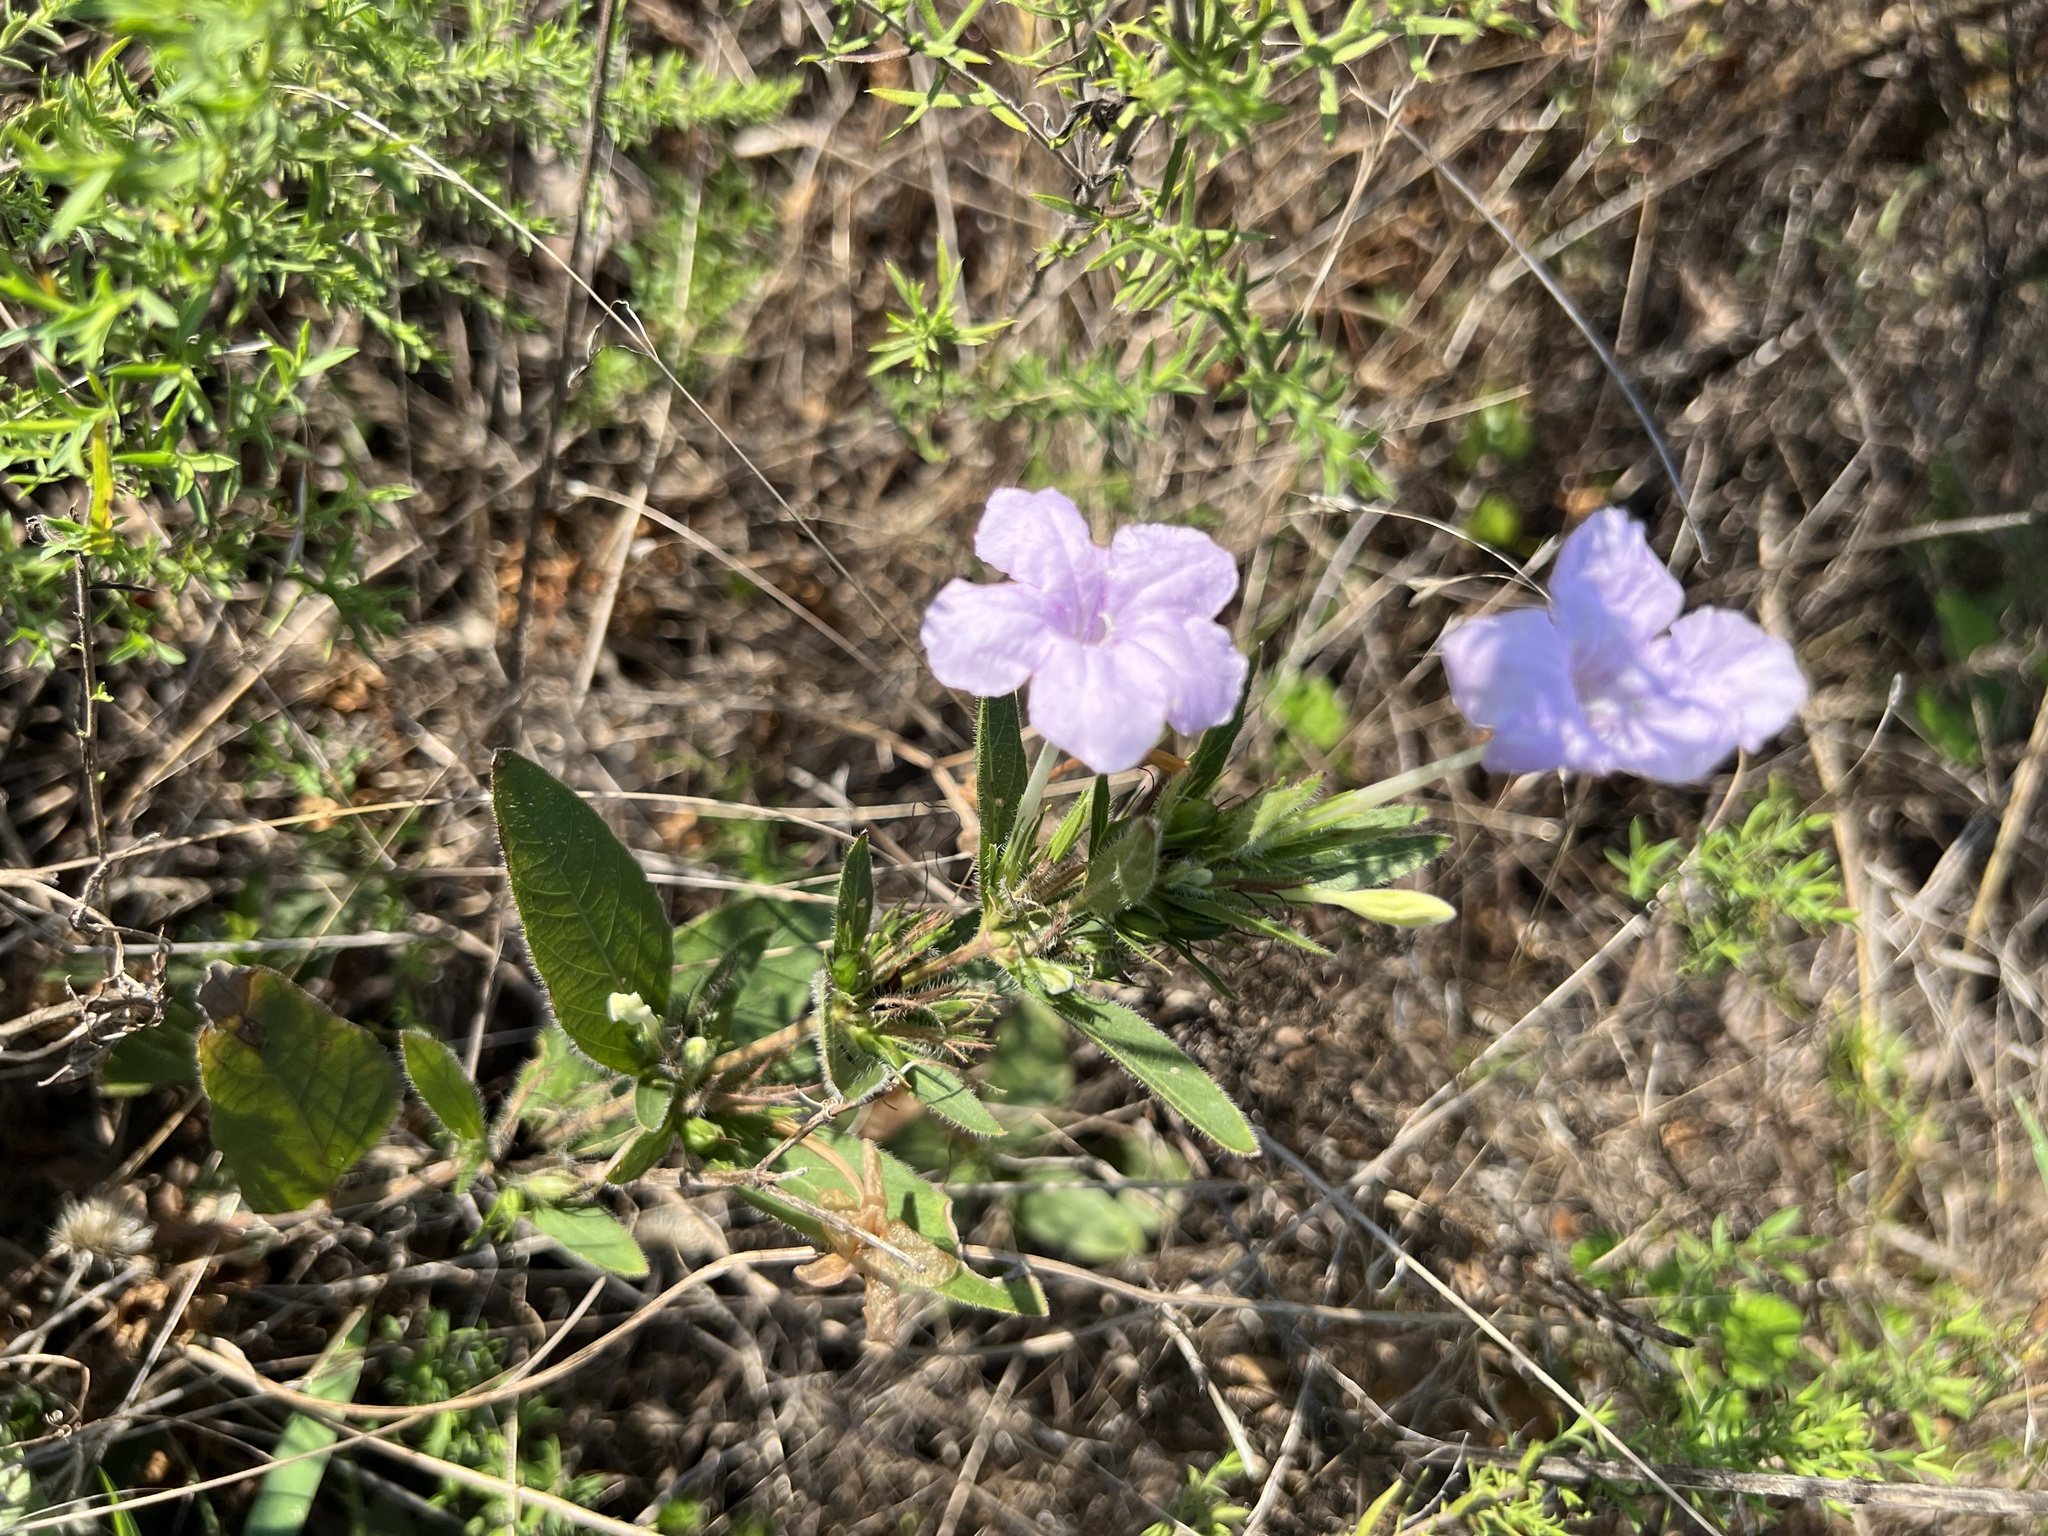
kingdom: Plantae
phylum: Tracheophyta
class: Magnoliopsida
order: Lamiales
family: Acanthaceae
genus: Ruellia
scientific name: Ruellia humilis
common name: Fringe-leaf ruellia
